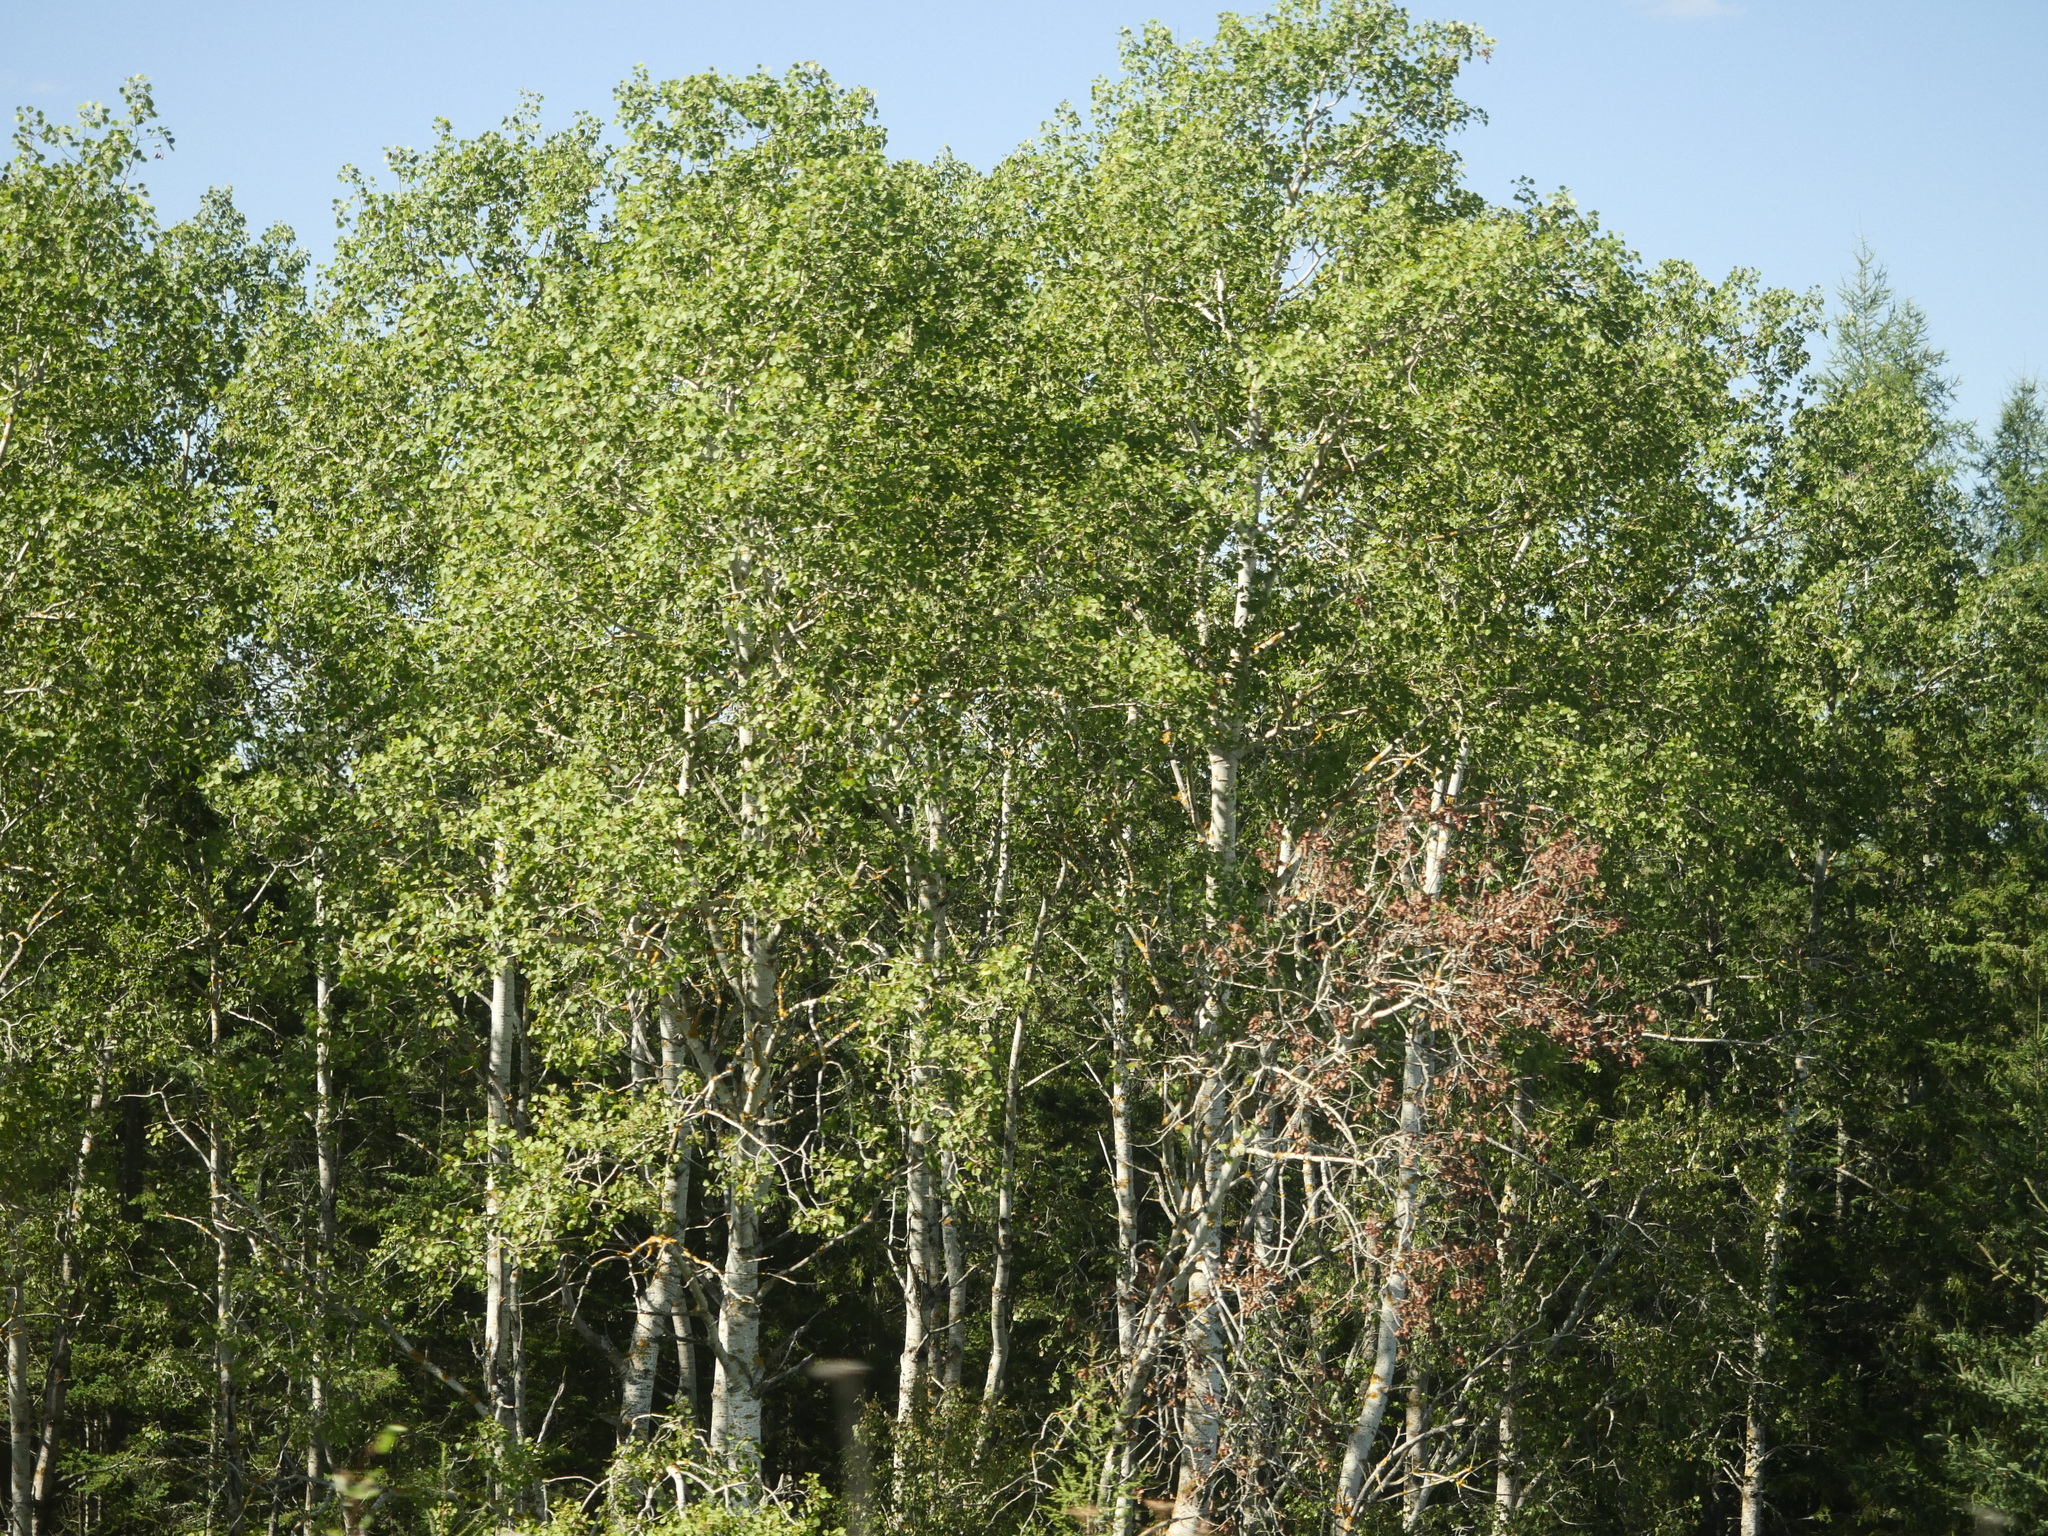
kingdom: Plantae
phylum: Tracheophyta
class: Magnoliopsida
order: Malpighiales
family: Salicaceae
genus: Populus
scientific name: Populus tremuloides
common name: Quaking aspen
